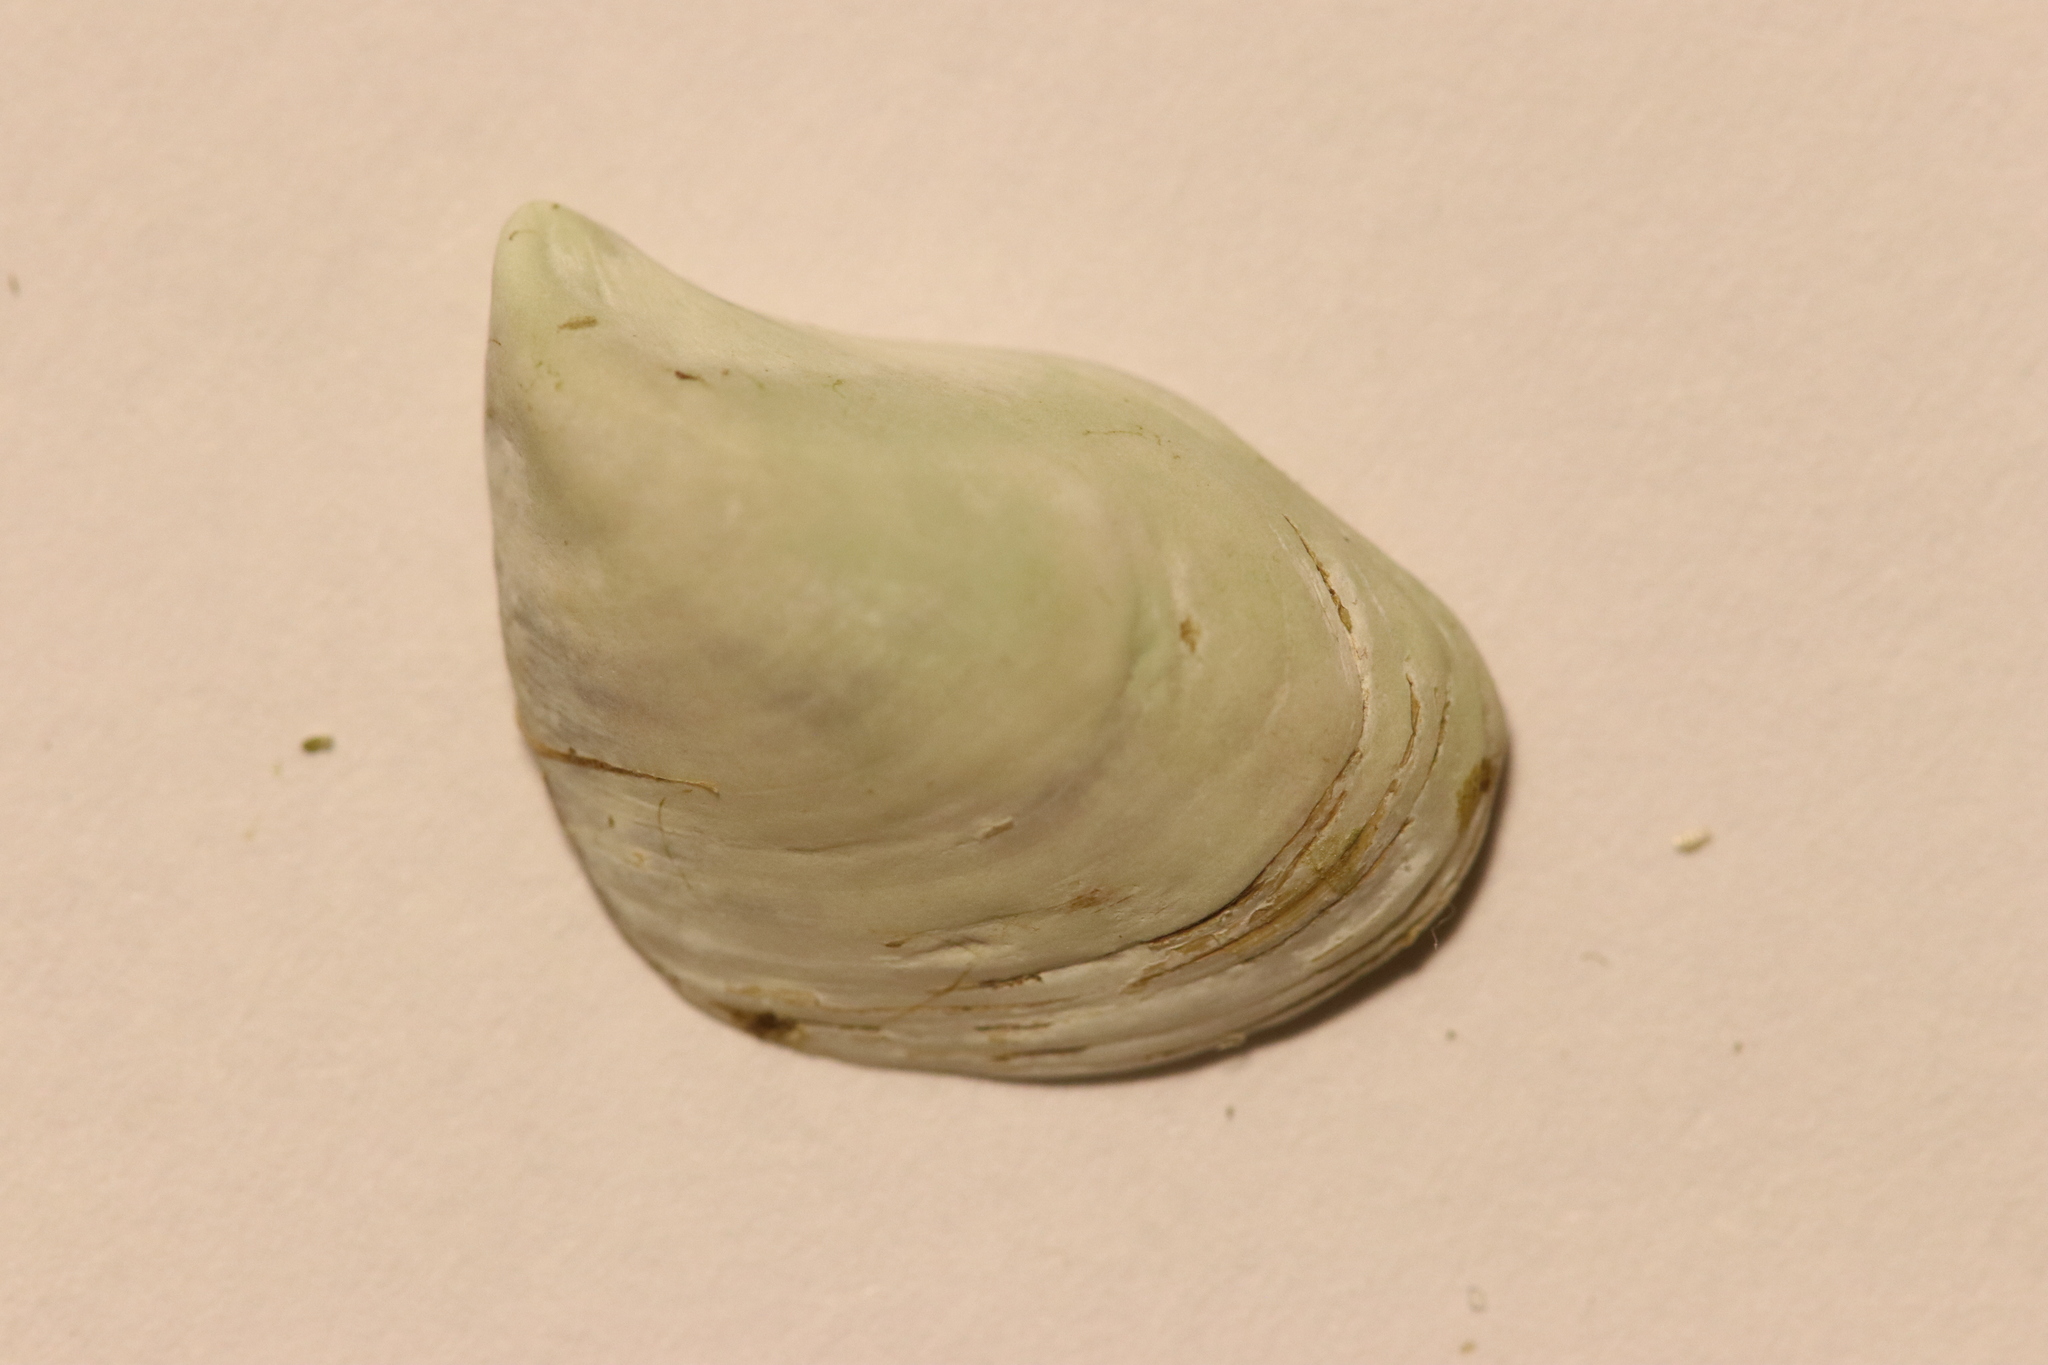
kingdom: Animalia
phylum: Mollusca
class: Bivalvia
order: Myida
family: Dreissenidae
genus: Dreissena
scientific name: Dreissena bugensis
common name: Quagga mussel
